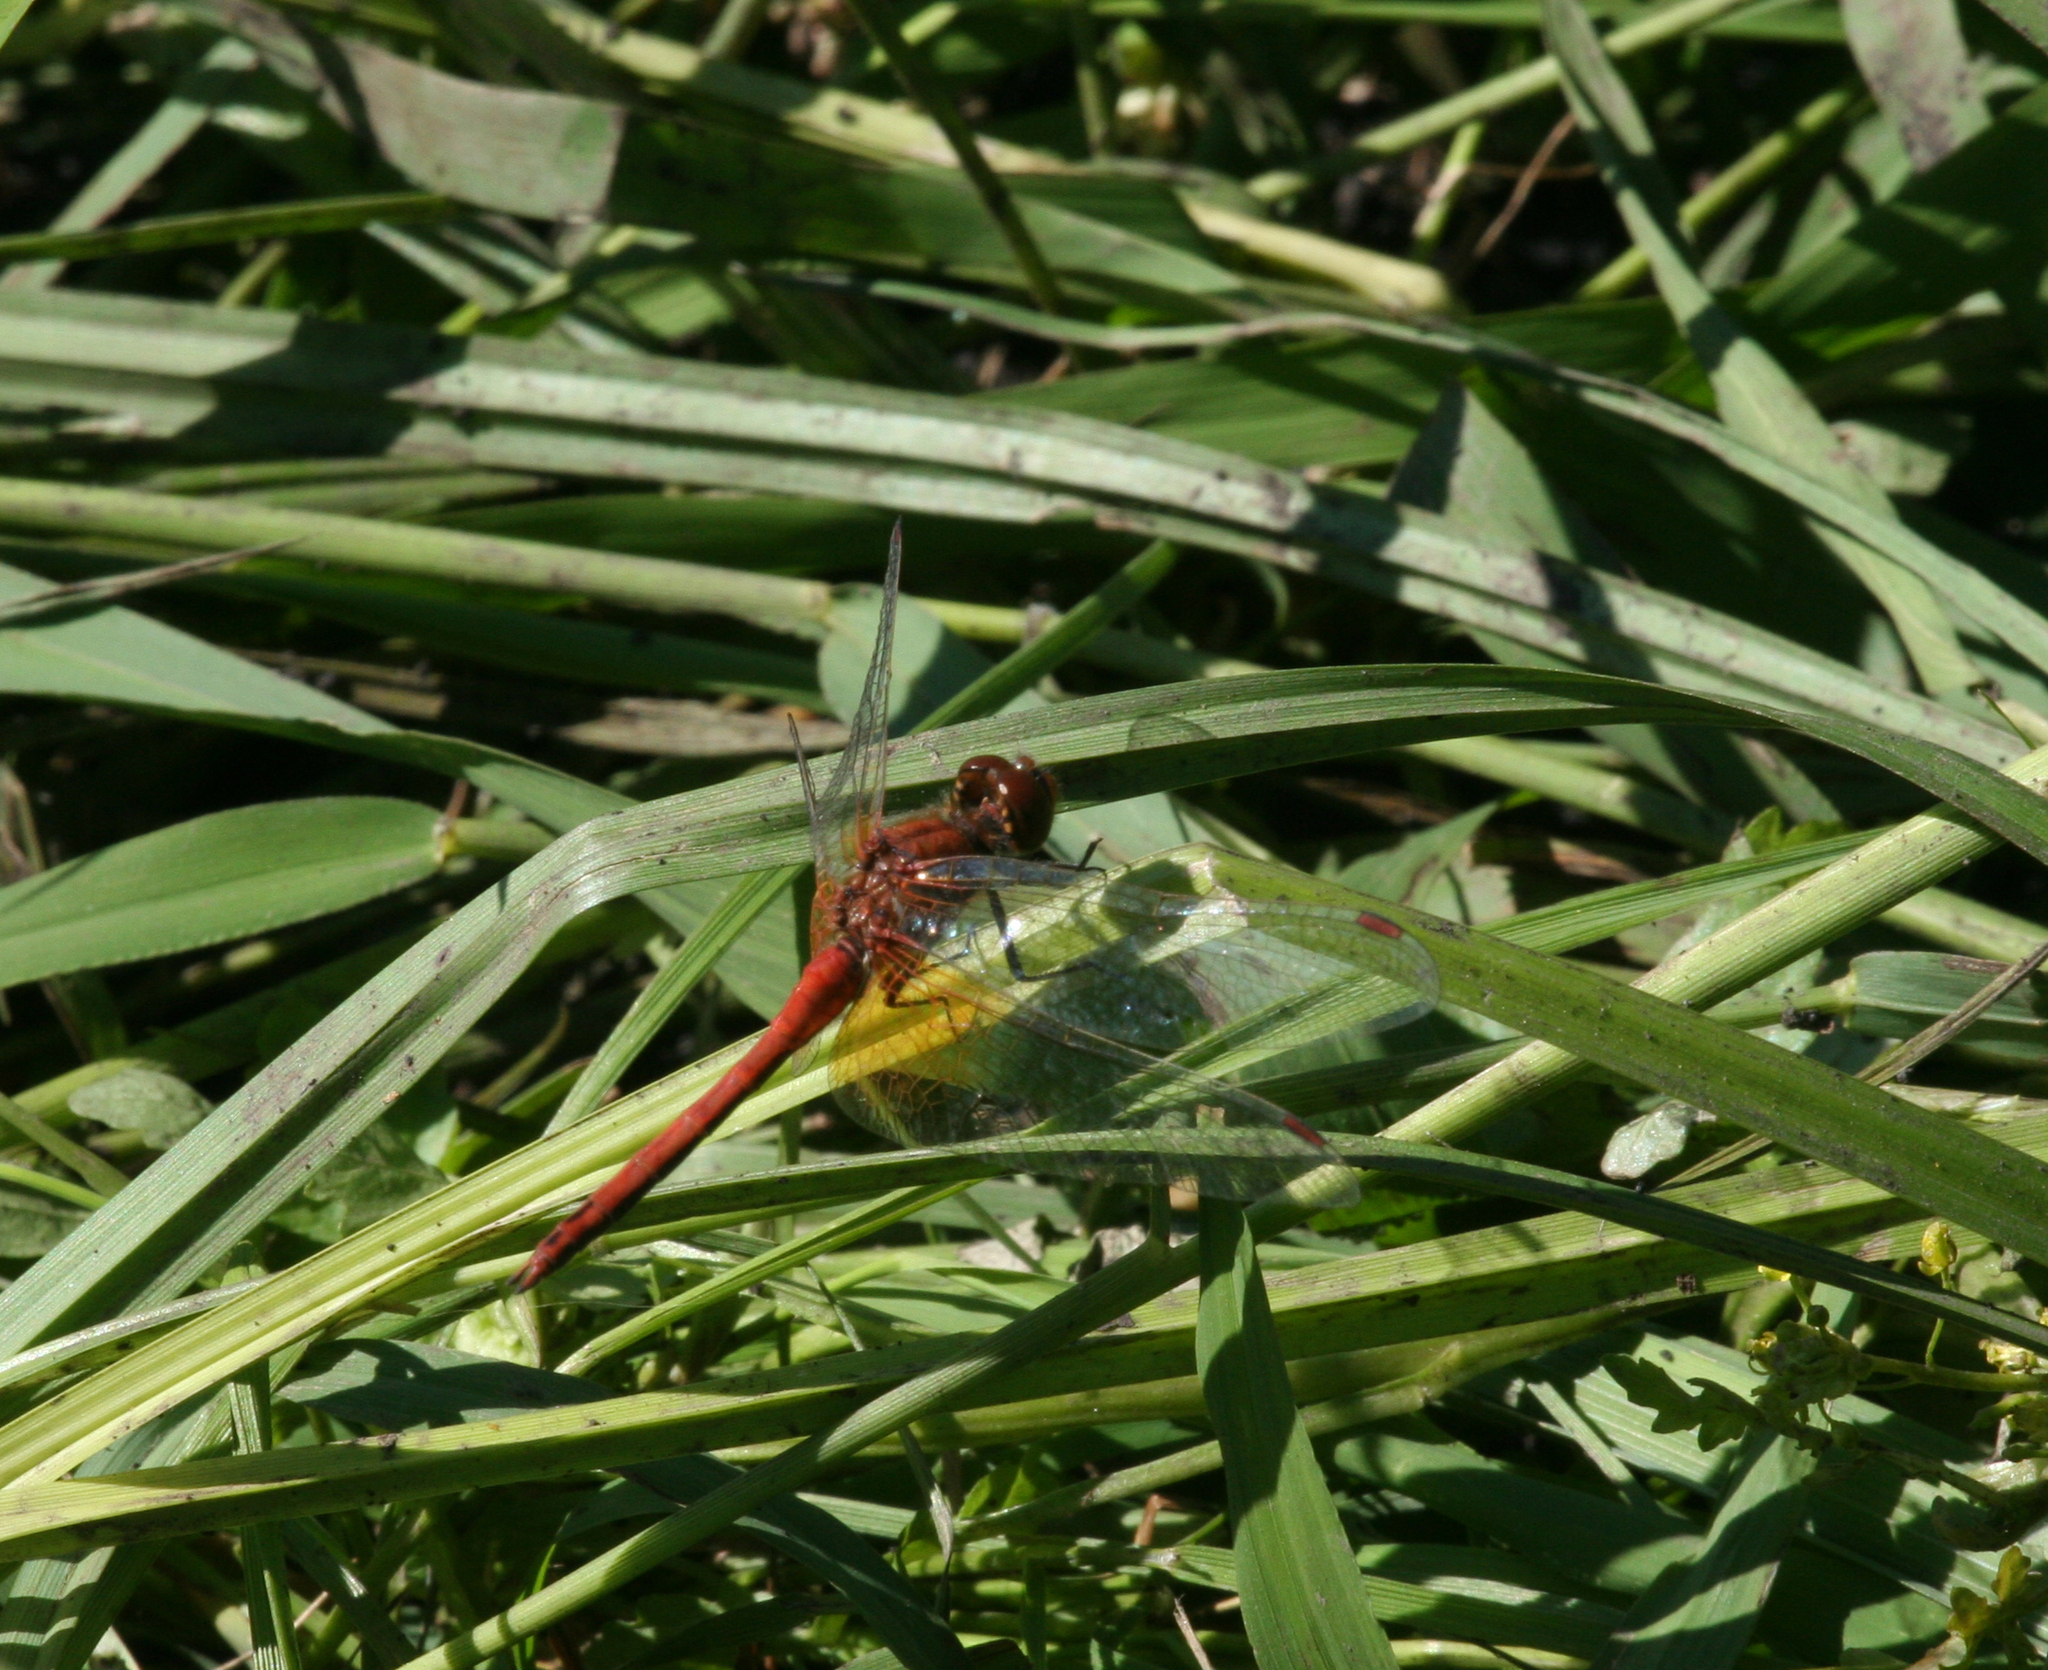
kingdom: Animalia
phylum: Arthropoda
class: Insecta
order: Odonata
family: Libellulidae
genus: Sympetrum
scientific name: Sympetrum flaveolum
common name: Yellow-winged darter
